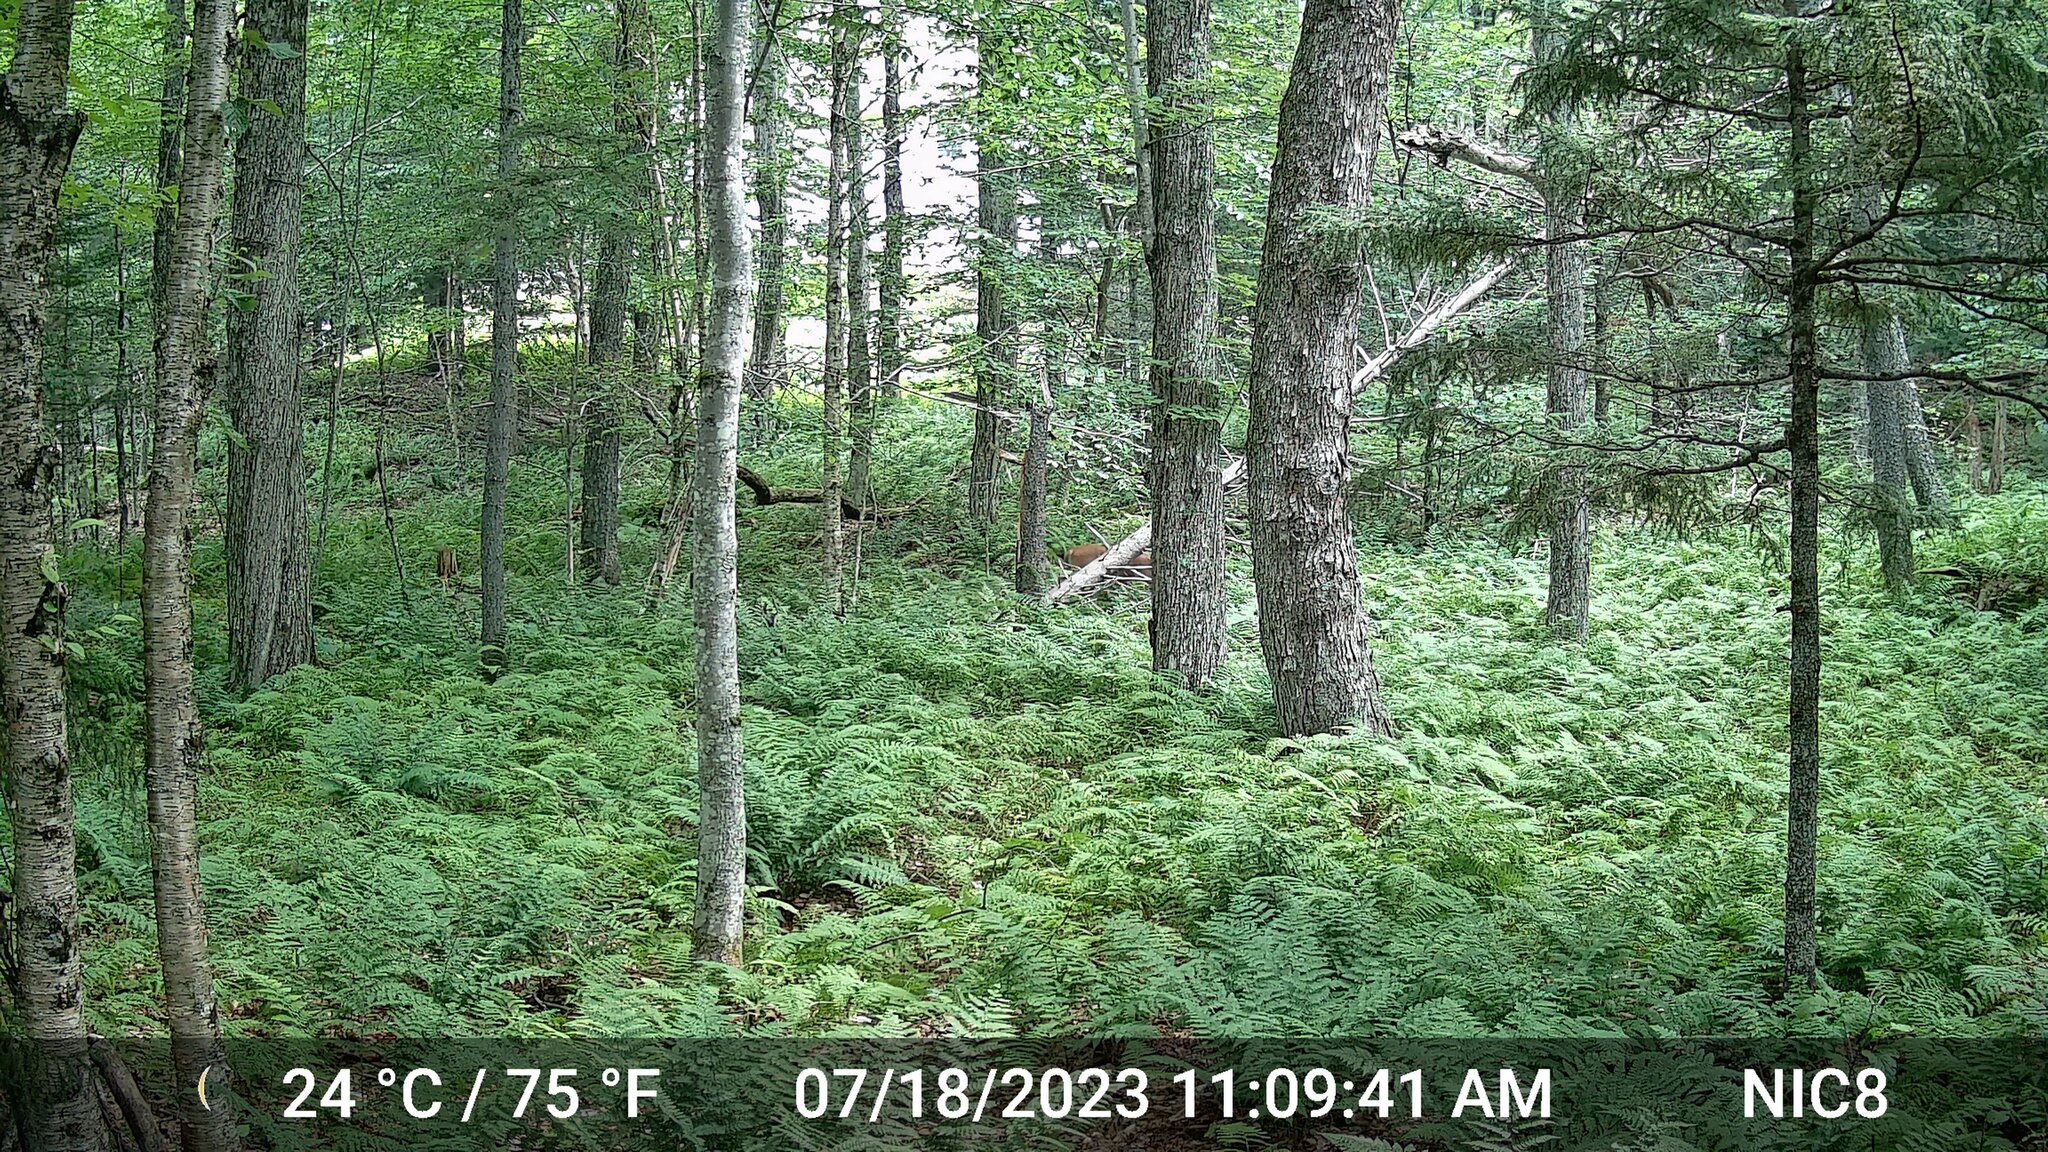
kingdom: Animalia
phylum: Chordata
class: Mammalia
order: Artiodactyla
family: Cervidae
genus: Odocoileus
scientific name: Odocoileus virginianus
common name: White-tailed deer
